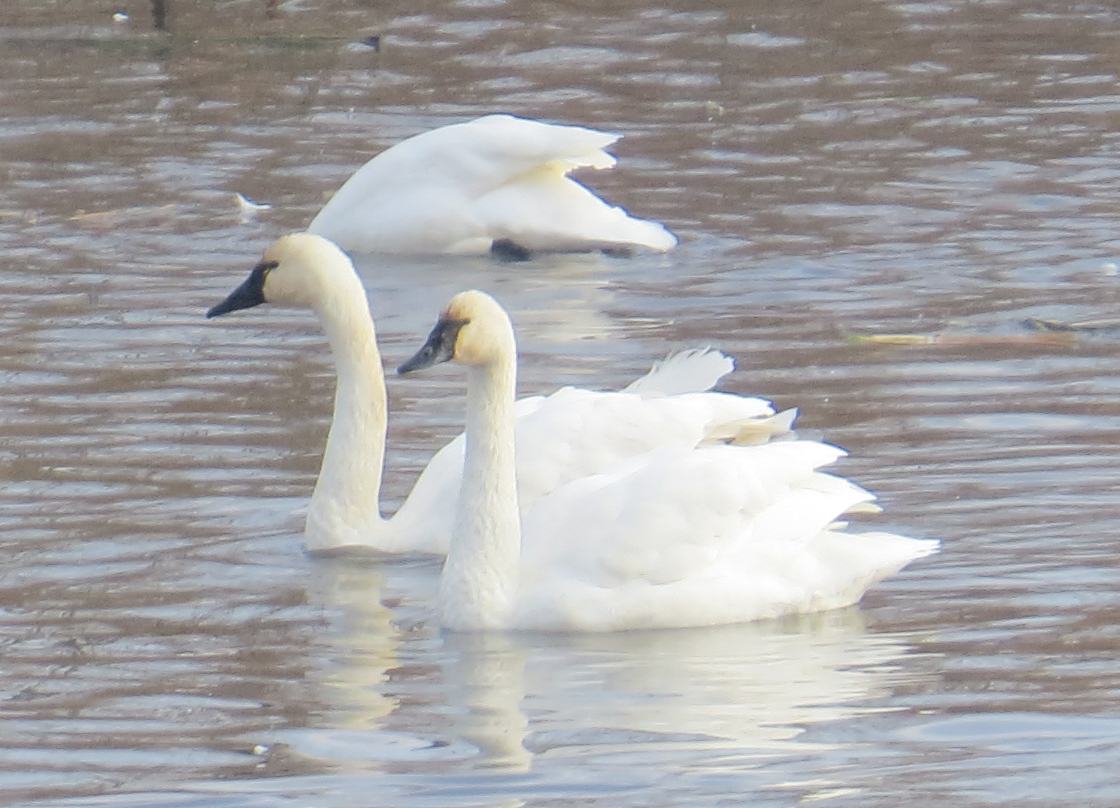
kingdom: Animalia
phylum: Chordata
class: Aves
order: Anseriformes
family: Anatidae
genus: Cygnus
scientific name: Cygnus columbianus
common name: Tundra swan
